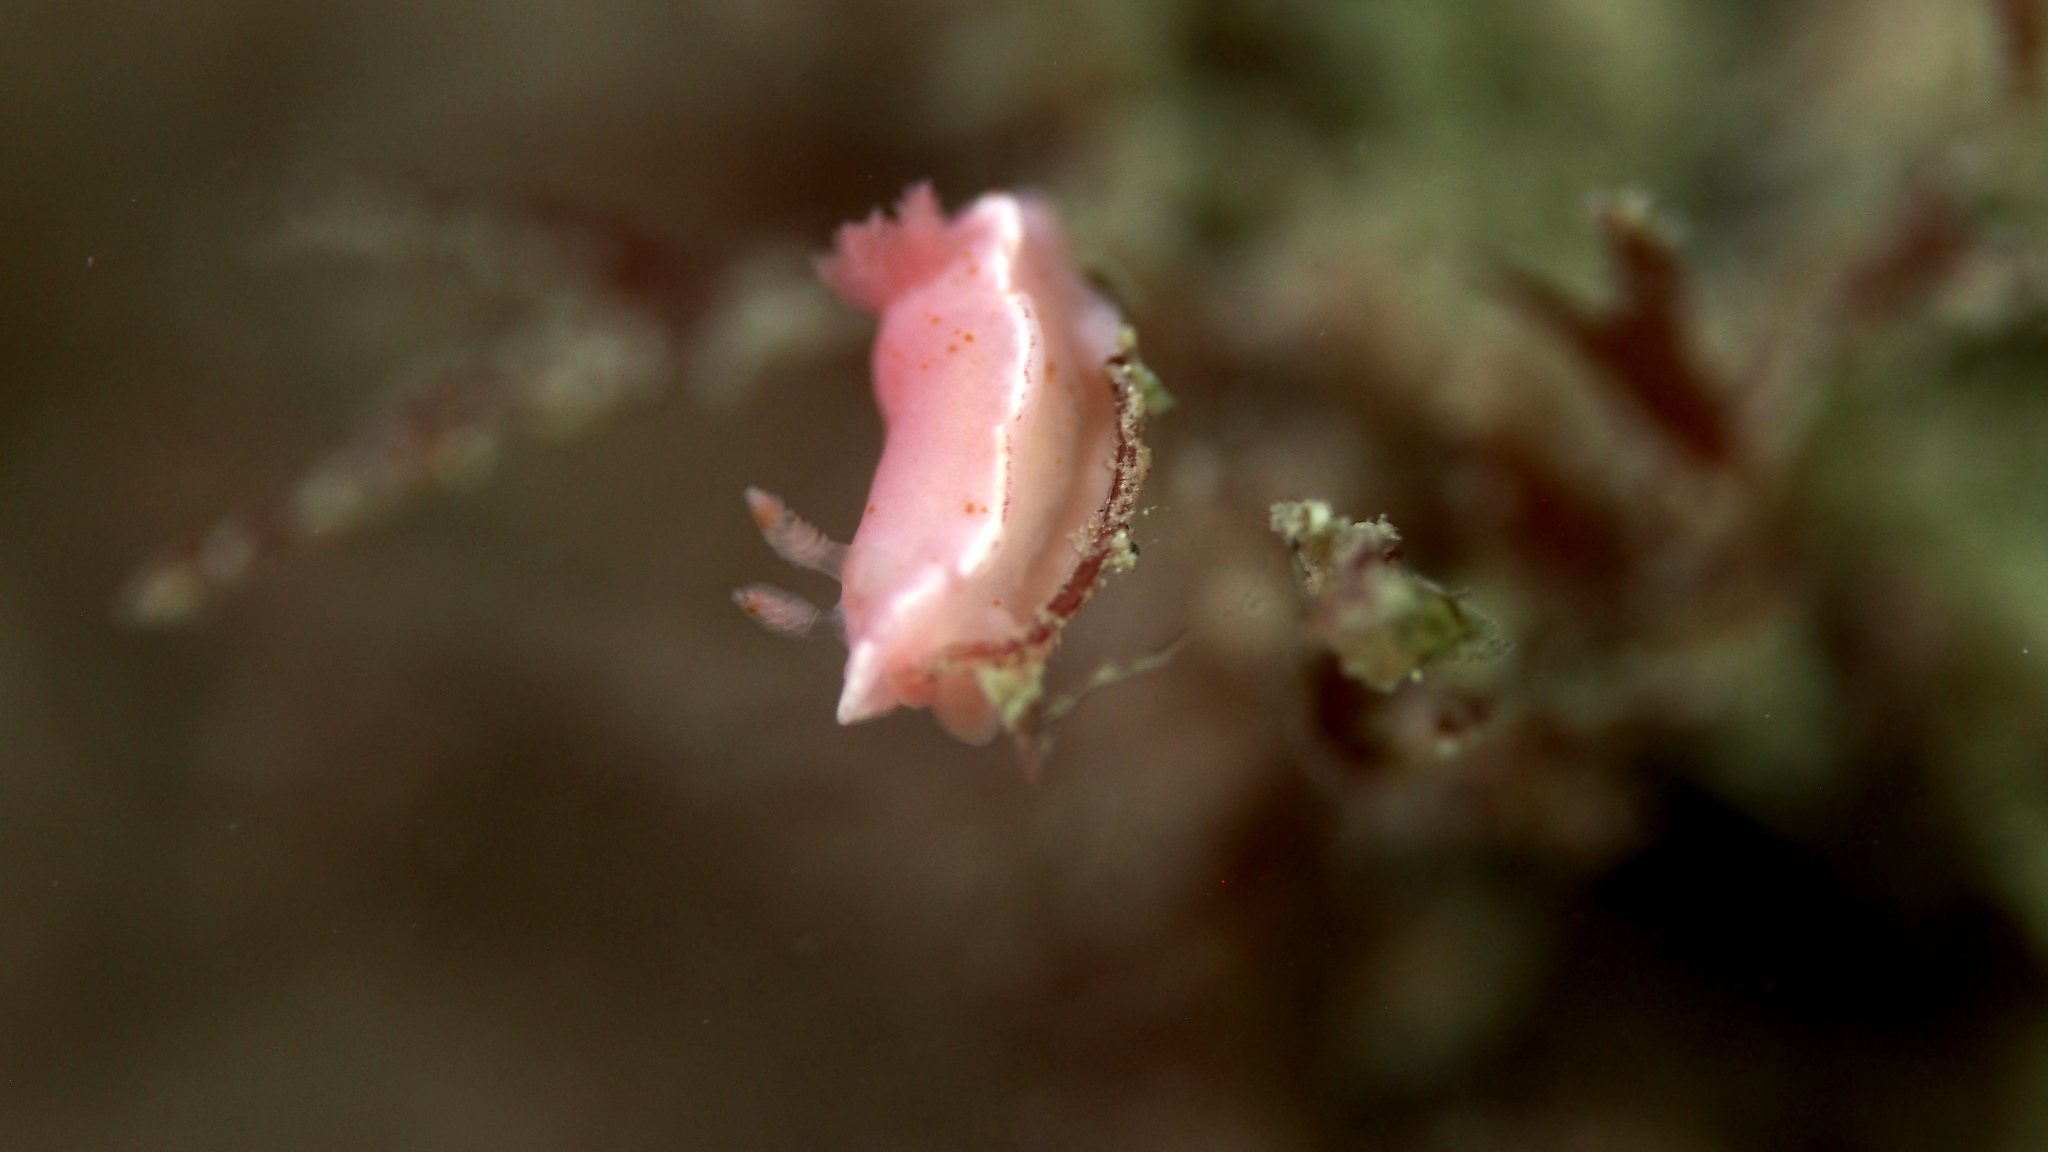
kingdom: Animalia
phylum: Mollusca
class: Gastropoda
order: Nudibranchia
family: Chromodorididae
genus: Verconia
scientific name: Verconia haliclona
